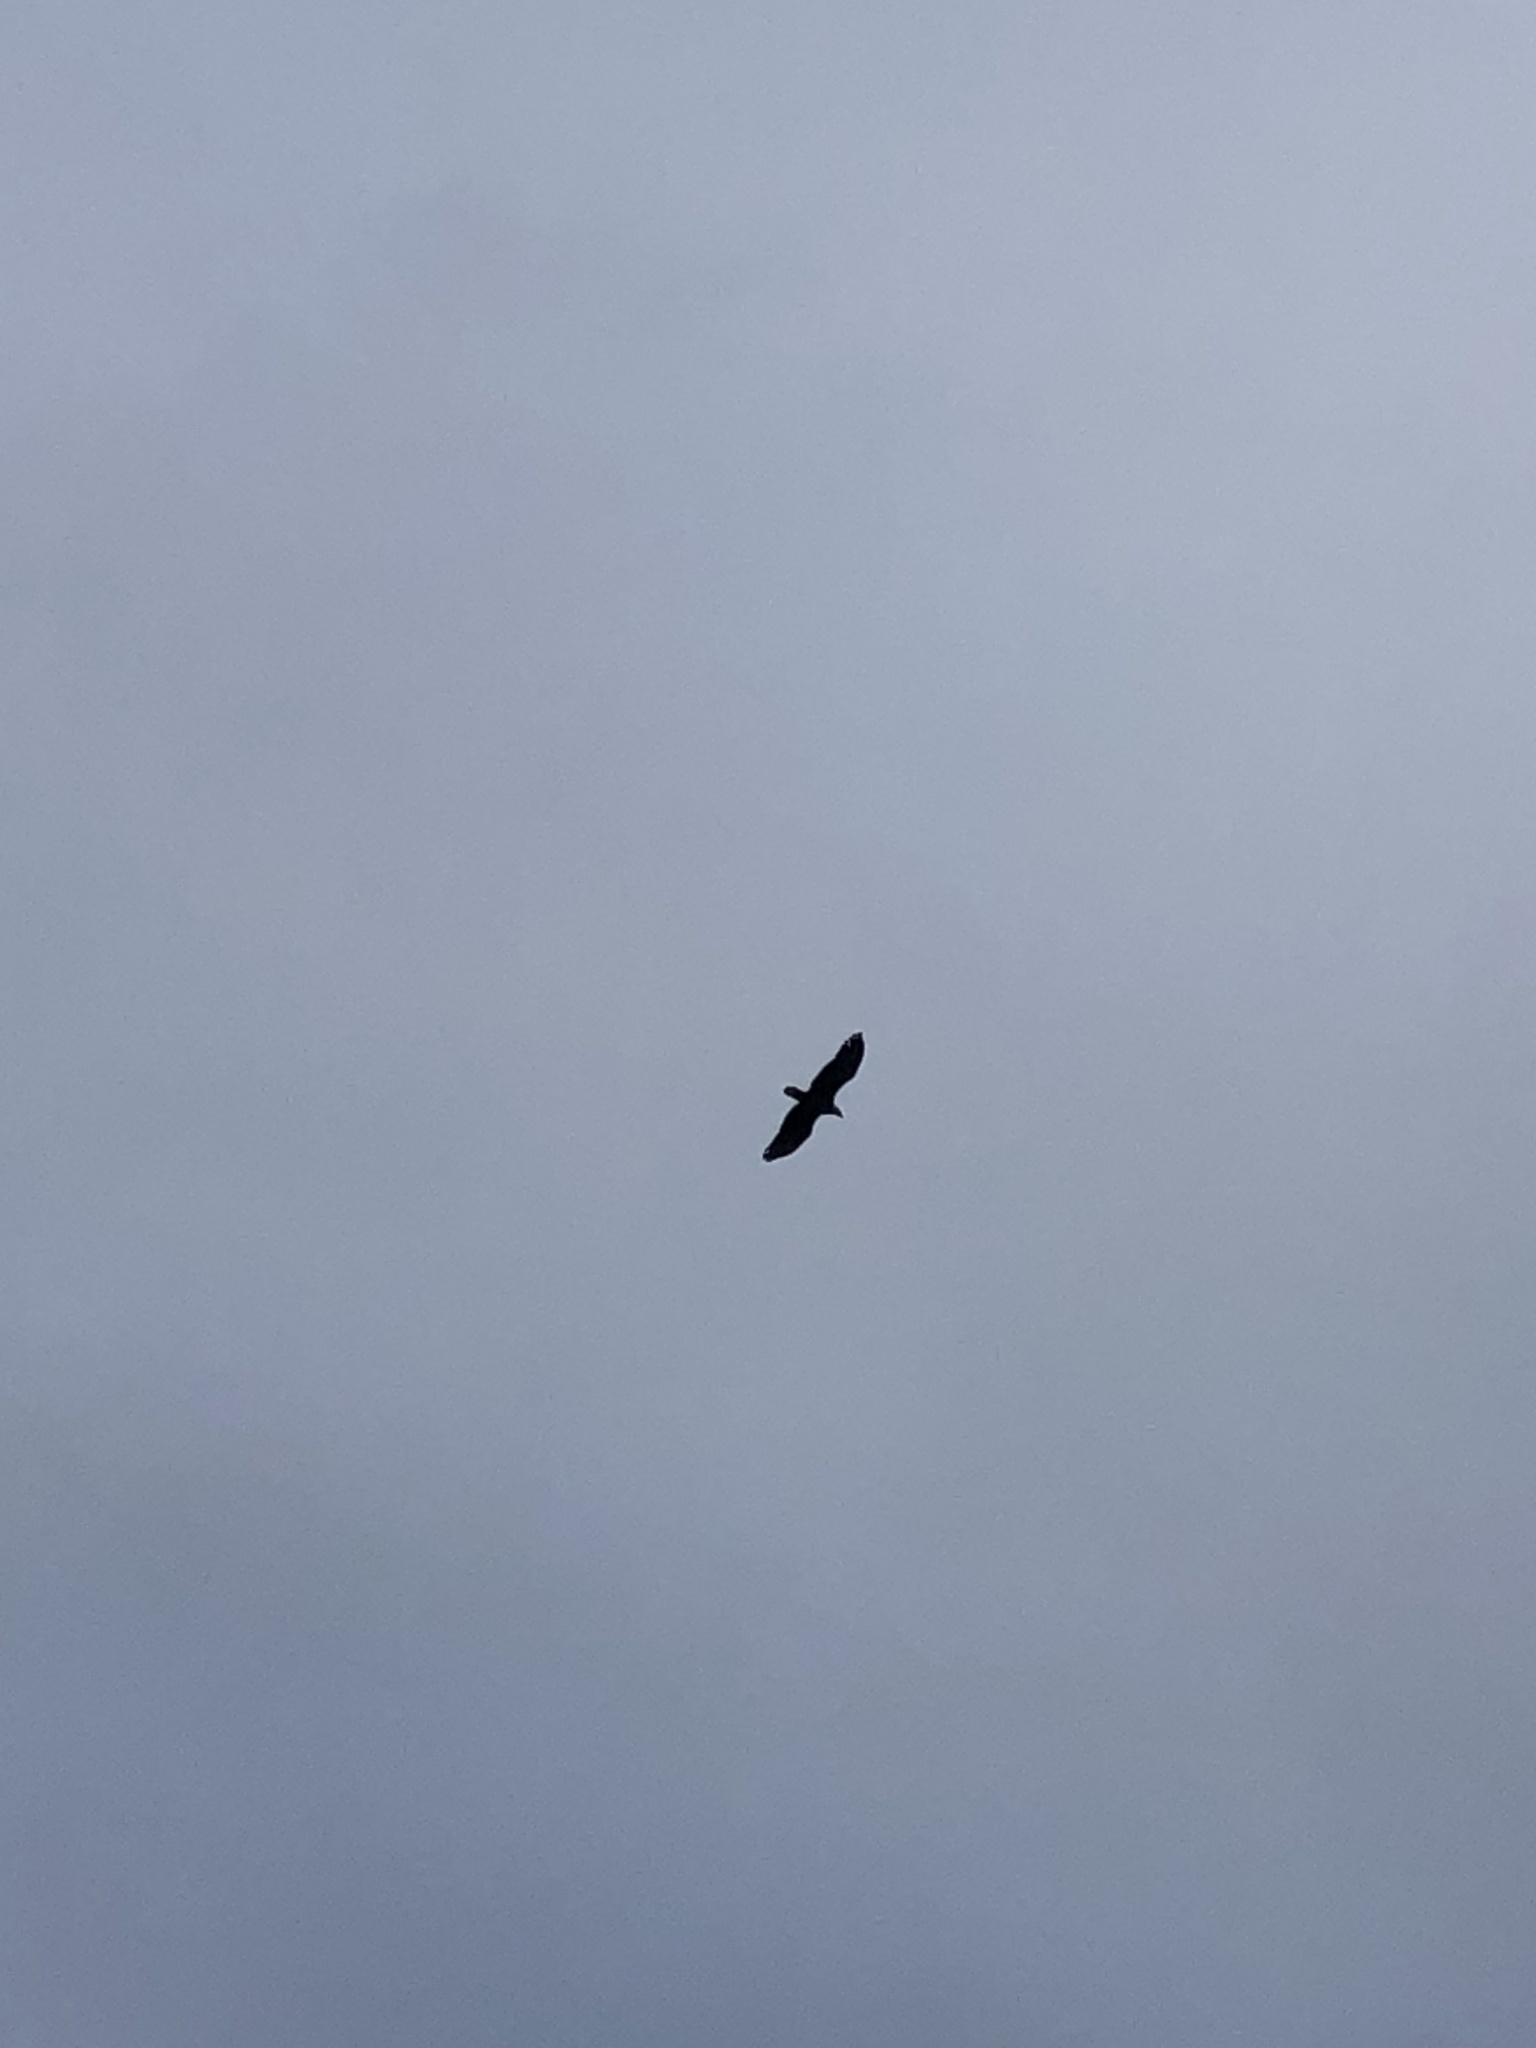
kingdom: Animalia
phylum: Chordata
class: Aves
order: Accipitriformes
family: Accipitridae
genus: Haliaeetus
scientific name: Haliaeetus leucocephalus
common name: Bald eagle
